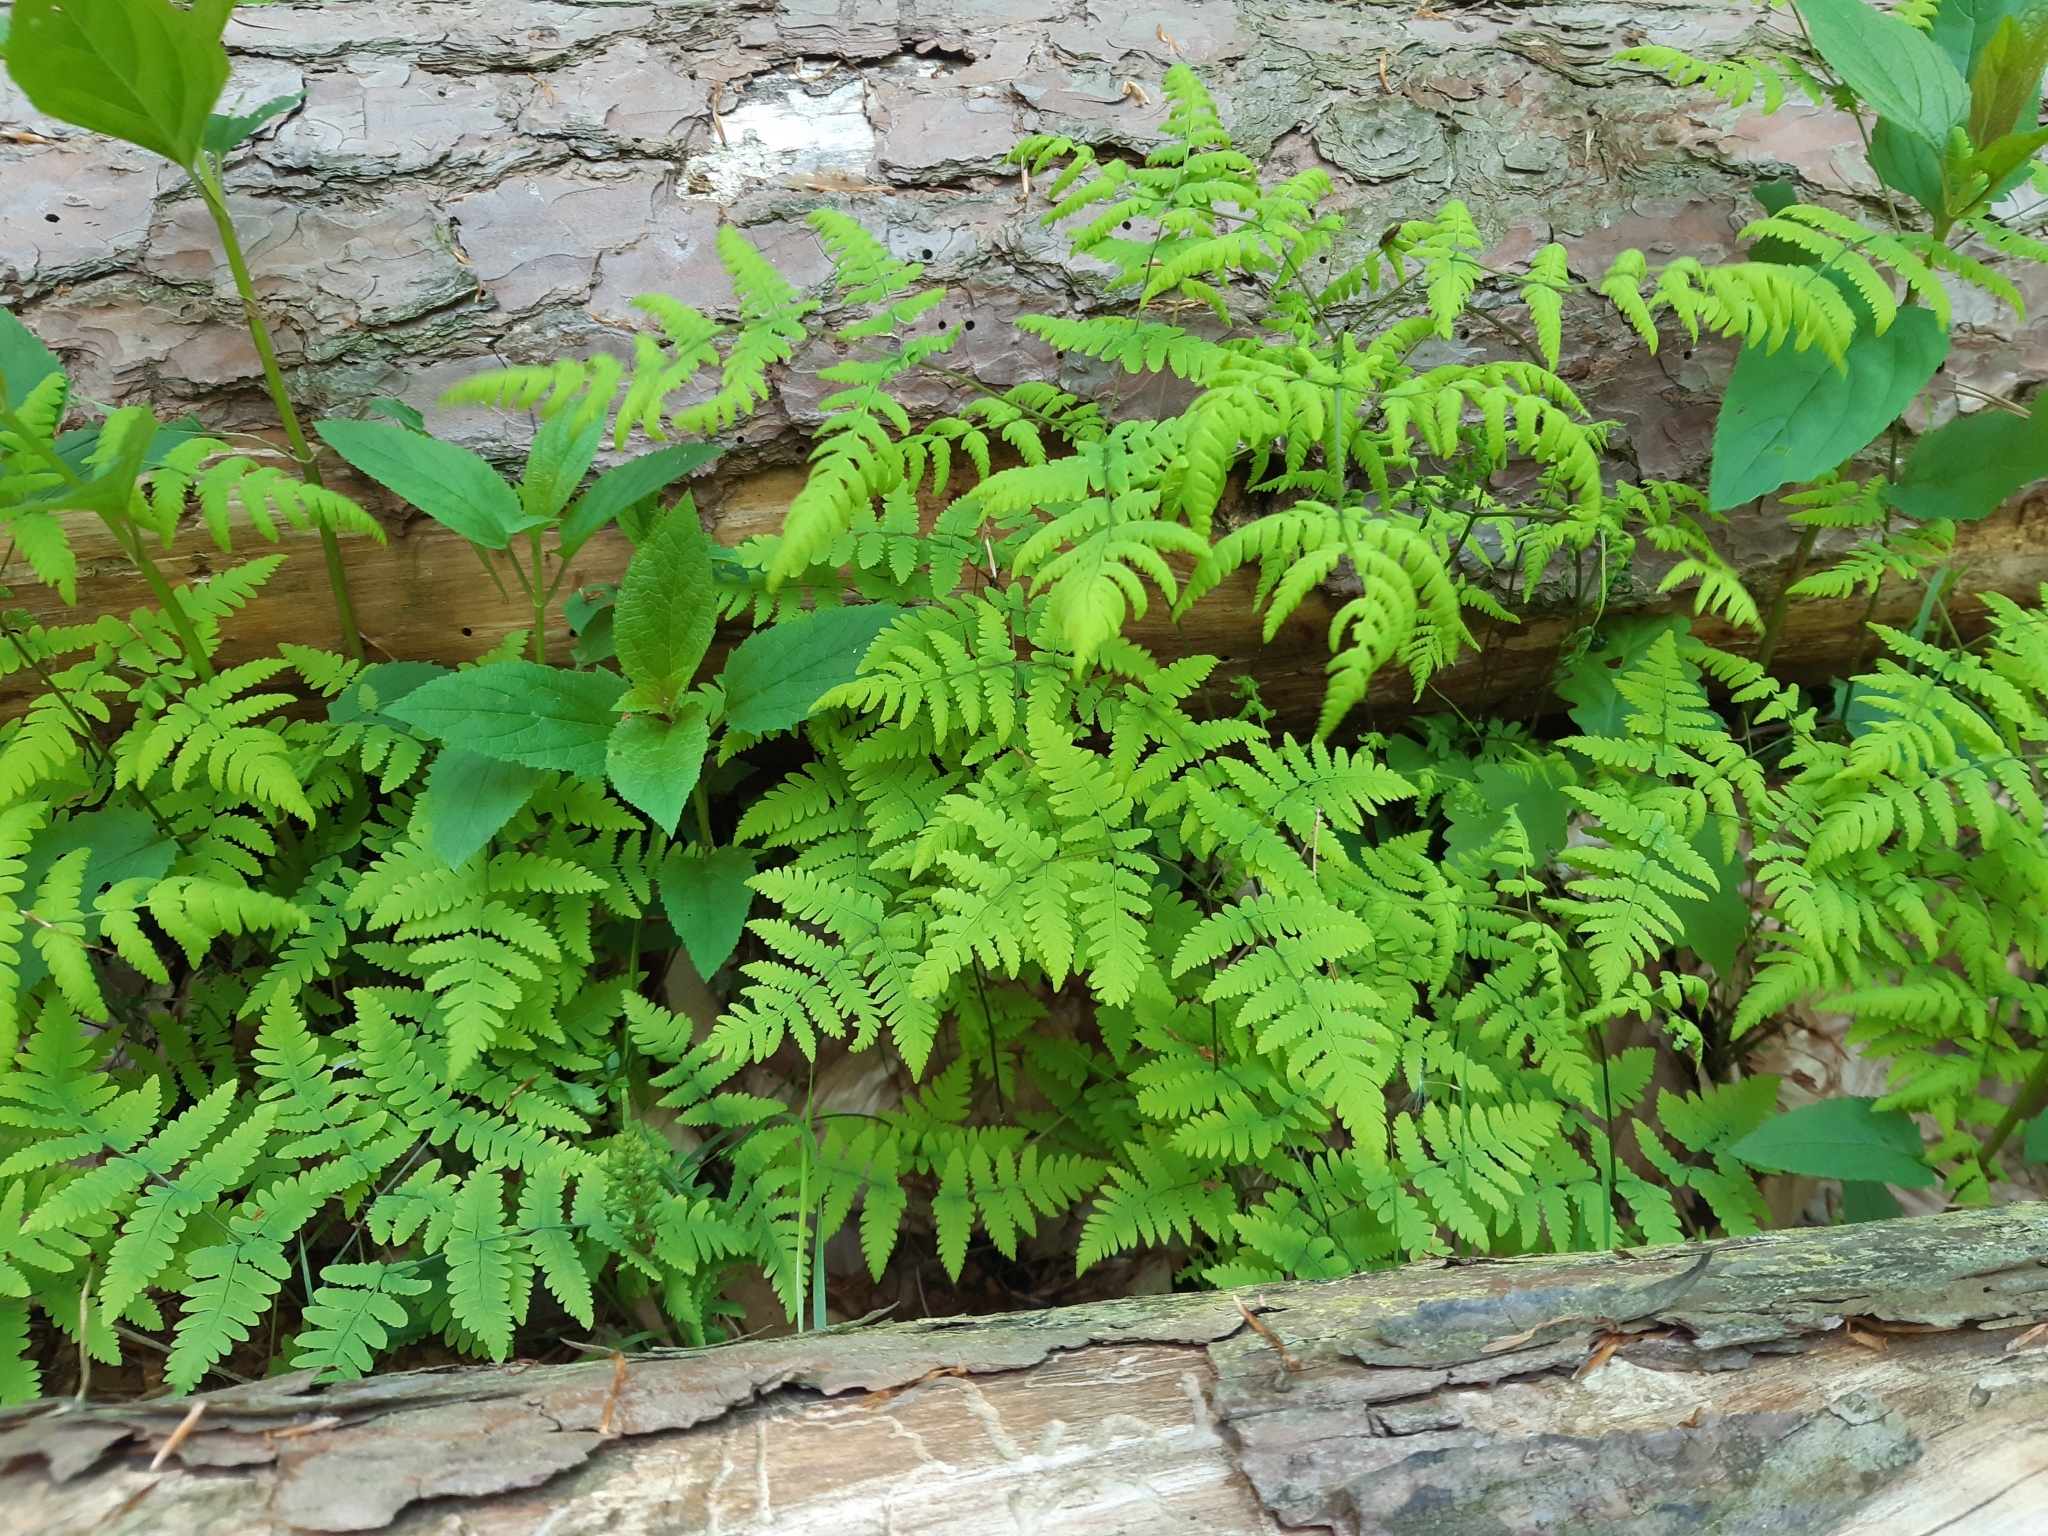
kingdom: Plantae
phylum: Tracheophyta
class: Polypodiopsida
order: Polypodiales
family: Cystopteridaceae
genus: Gymnocarpium
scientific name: Gymnocarpium dryopteris
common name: Oak fern
